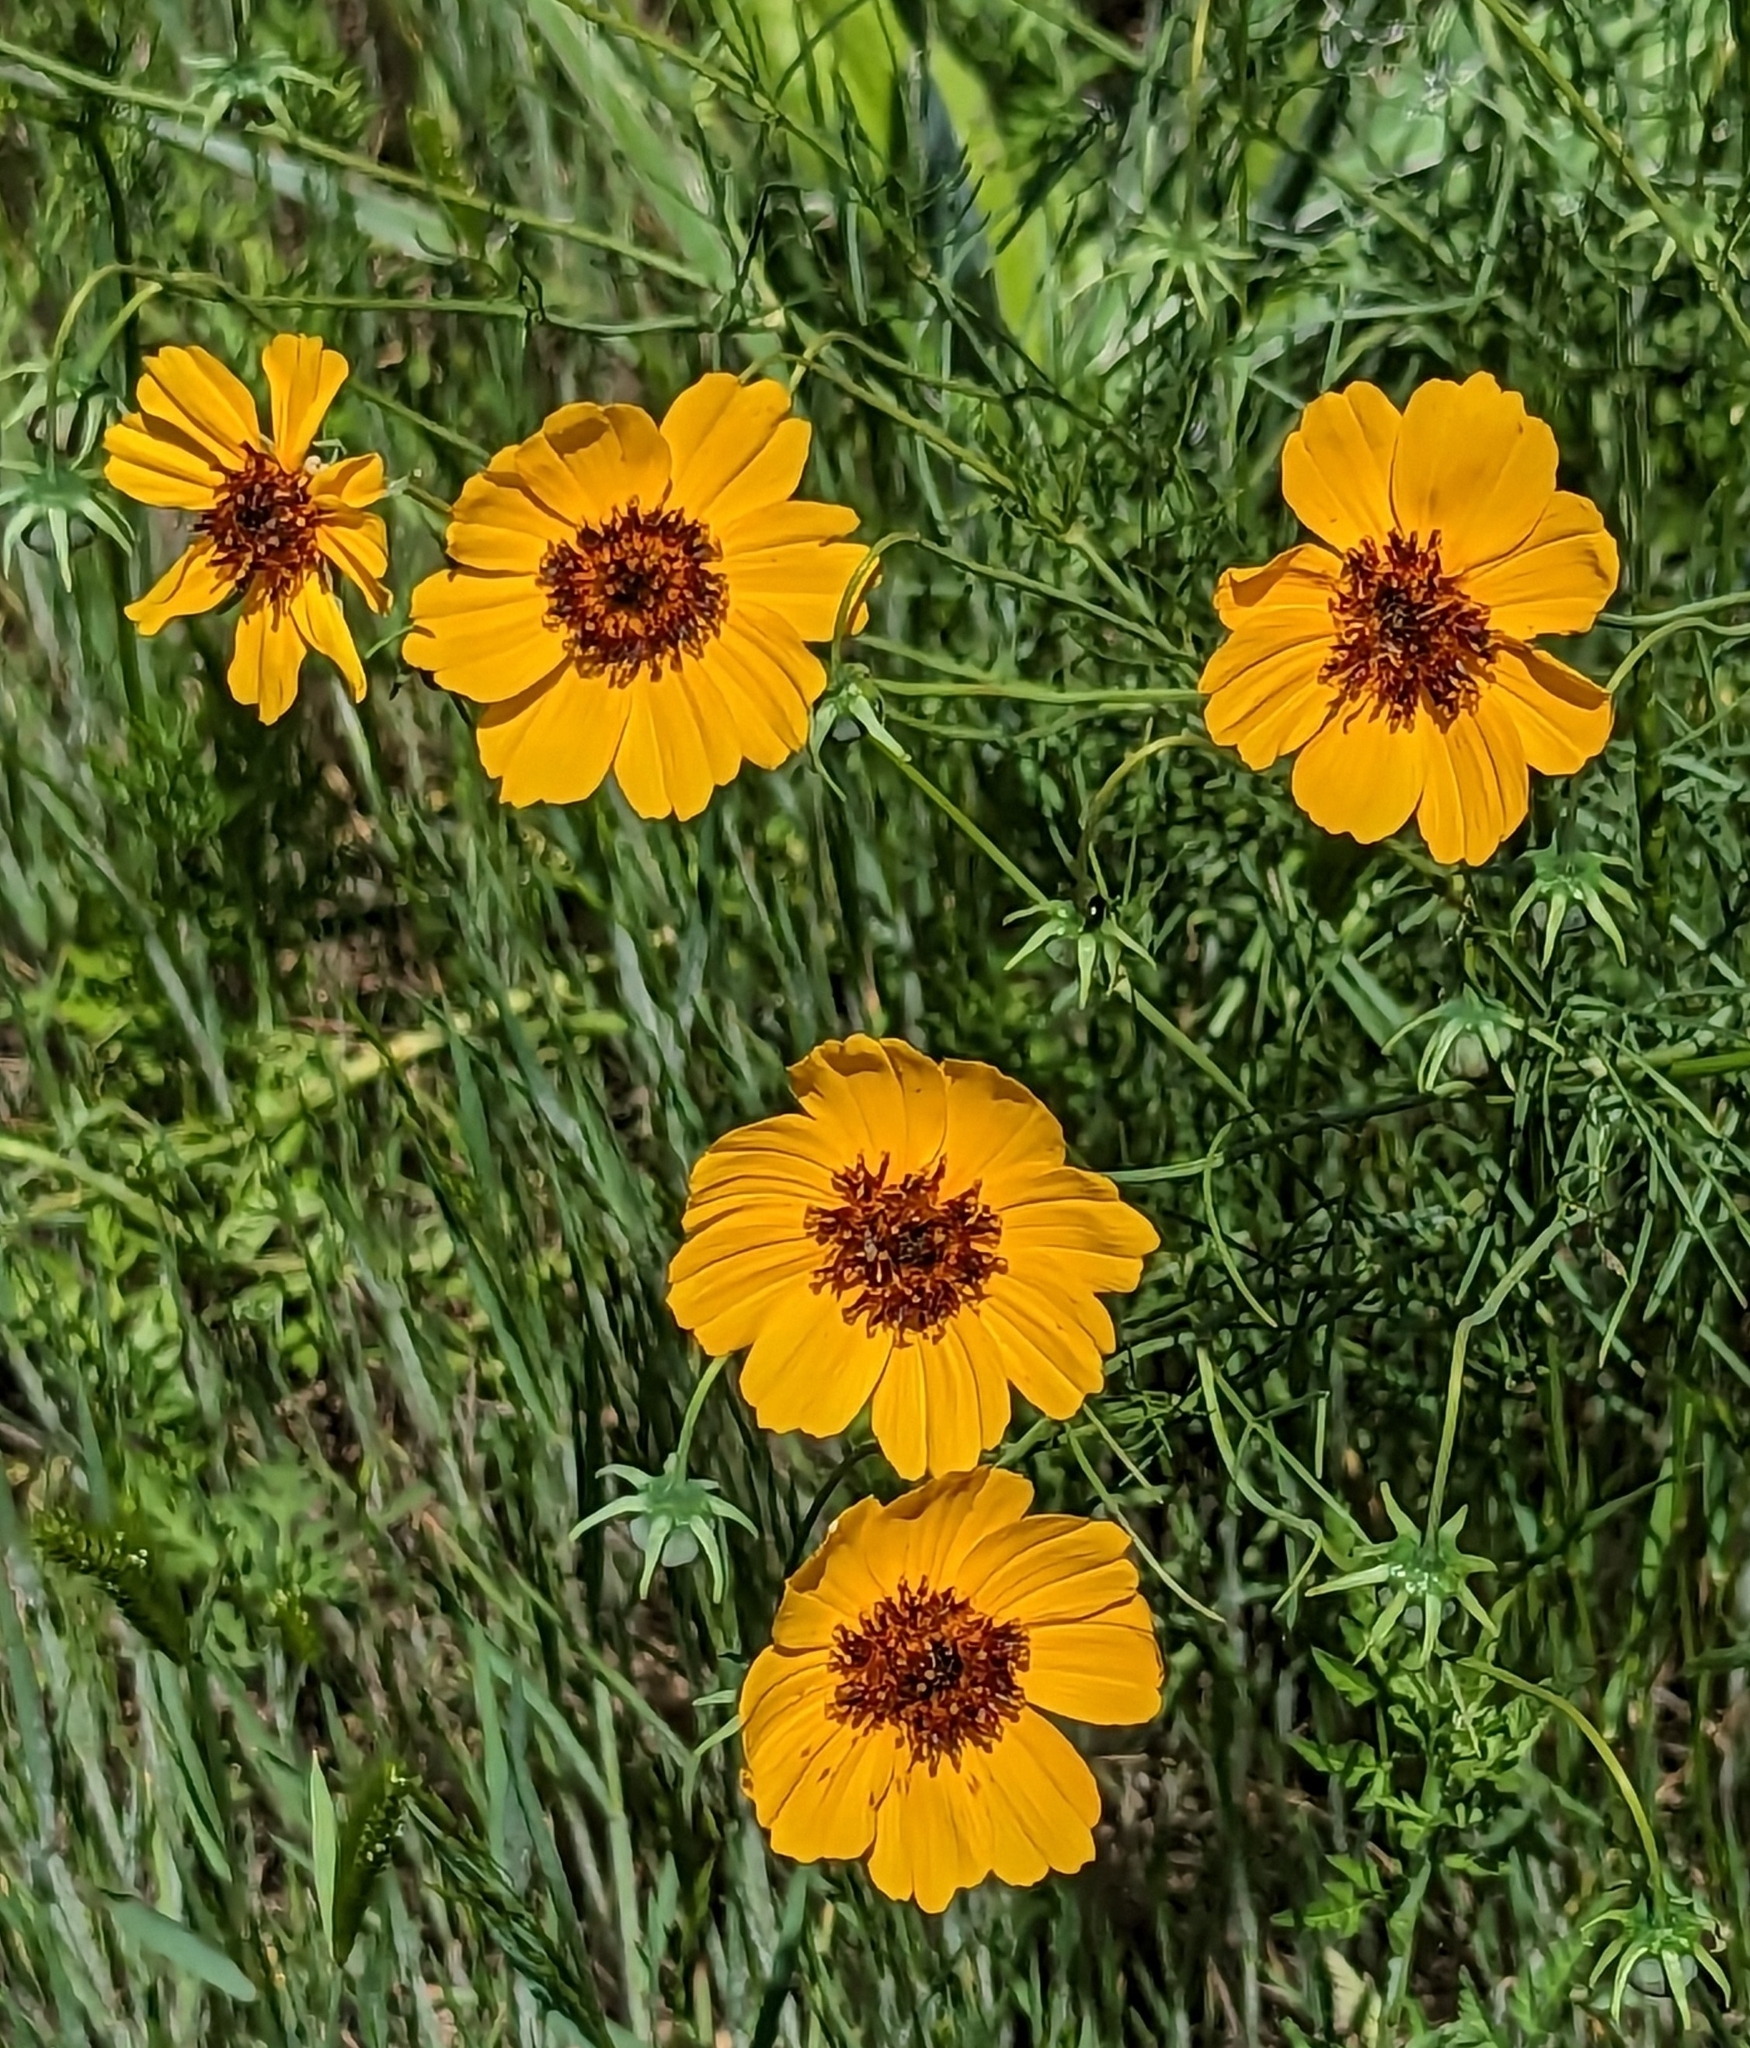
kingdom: Plantae
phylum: Tracheophyta
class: Magnoliopsida
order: Asterales
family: Asteraceae
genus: Thelesperma
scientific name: Thelesperma filifolium
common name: Stiff greenthread
